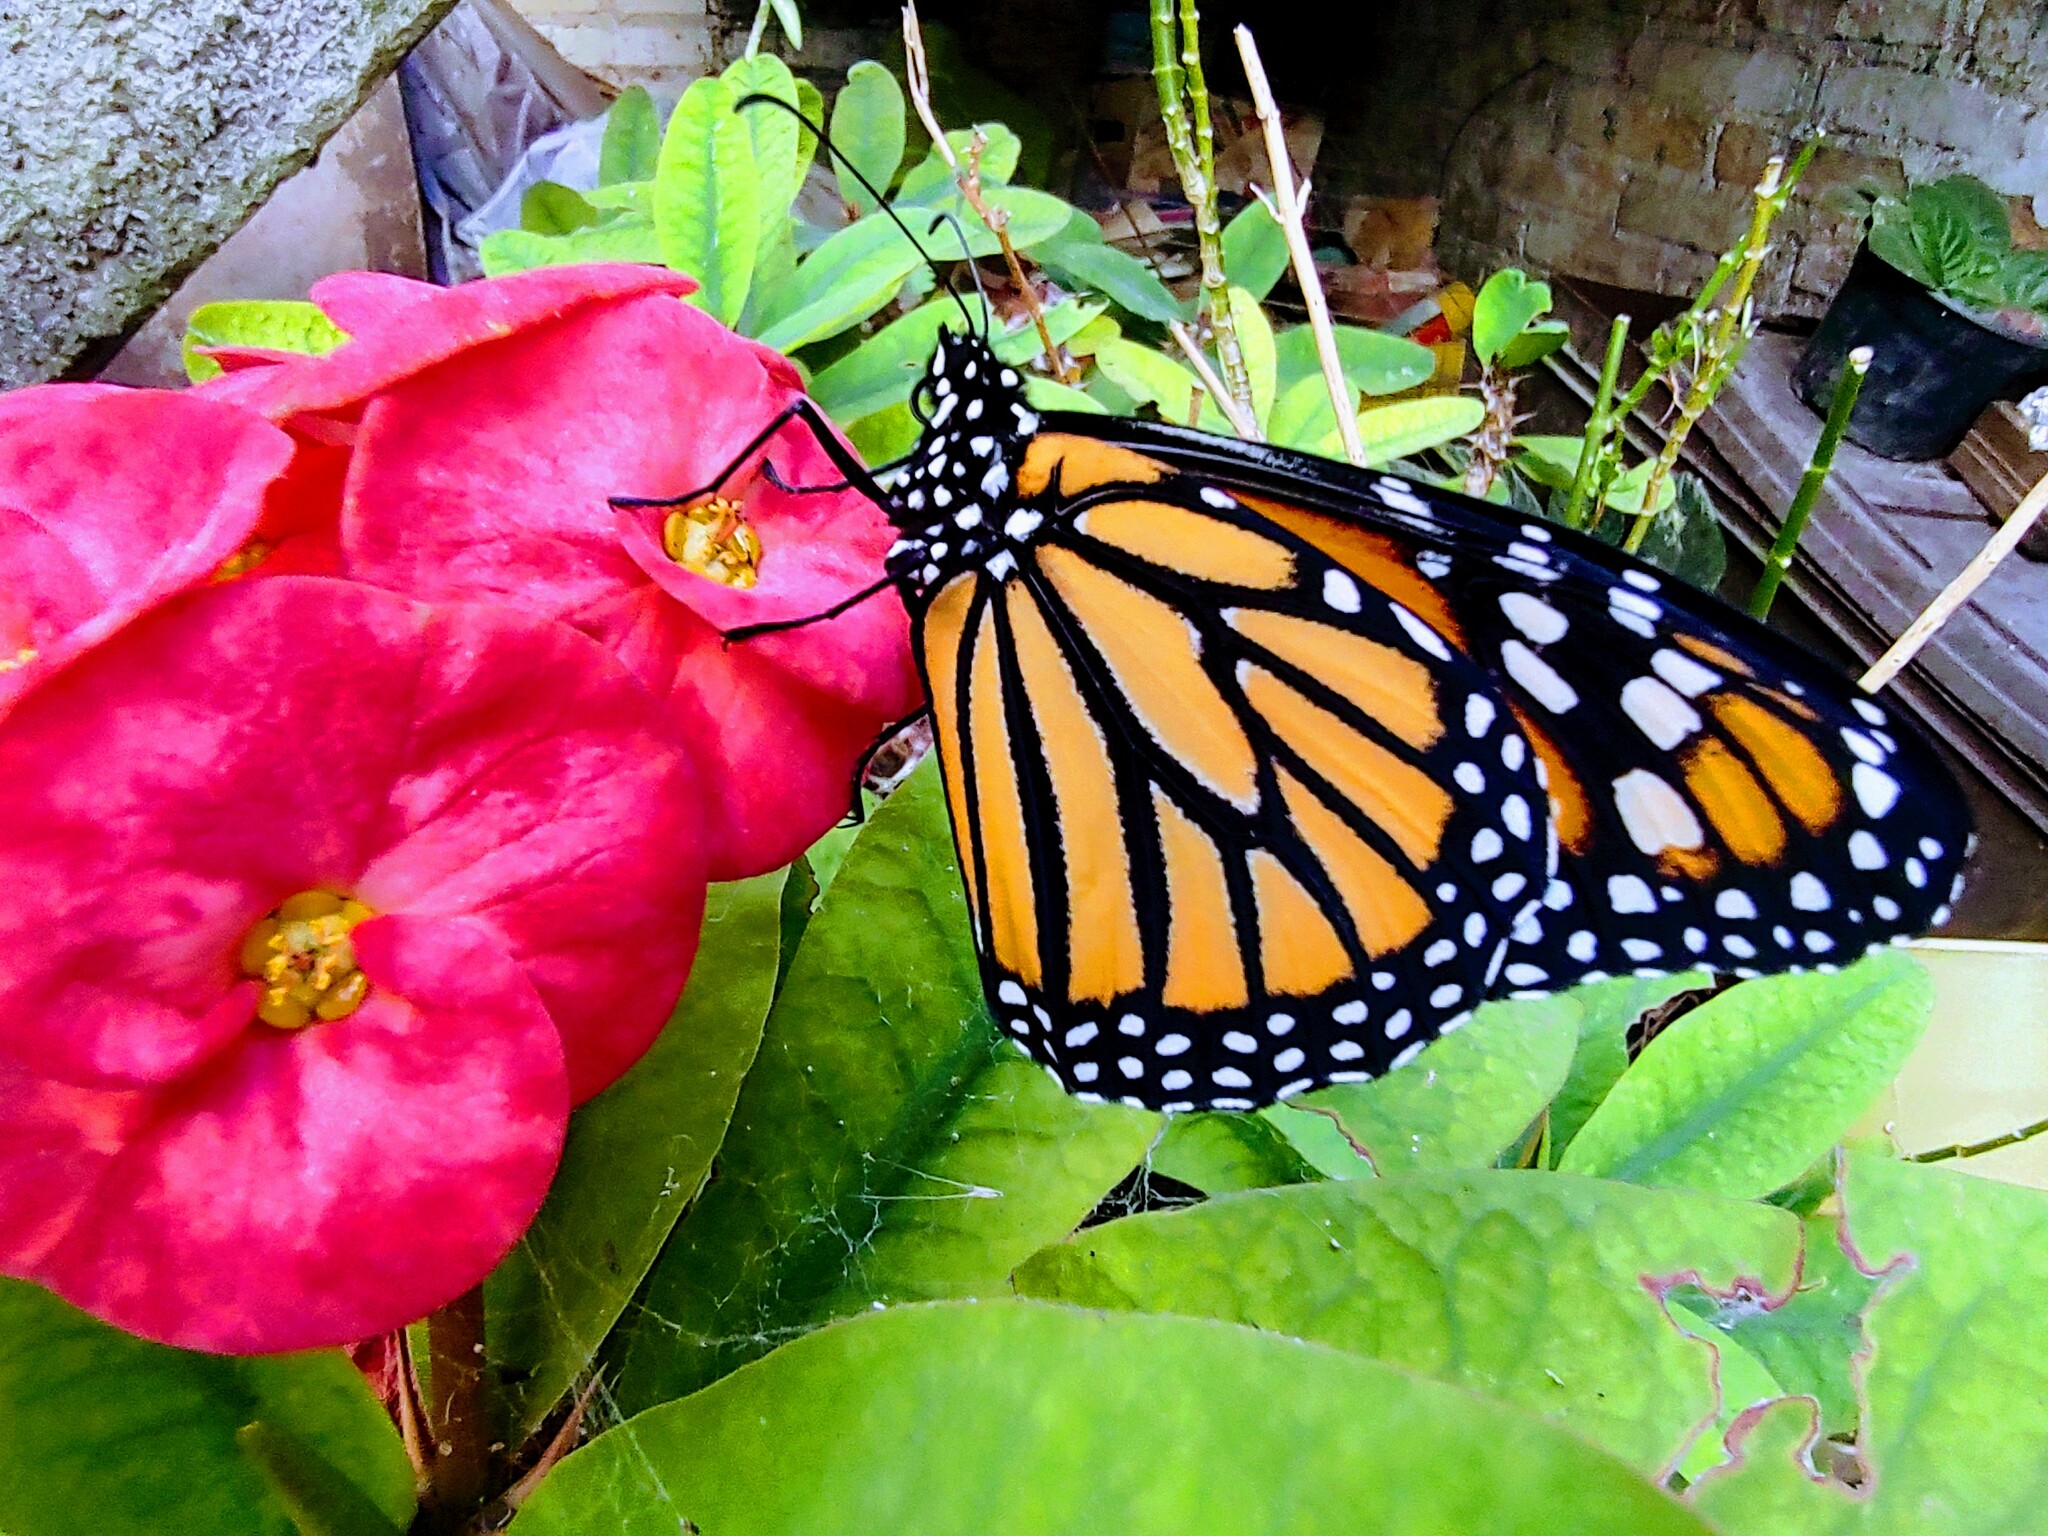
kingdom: Animalia
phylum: Arthropoda
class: Insecta
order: Lepidoptera
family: Nymphalidae
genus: Danaus
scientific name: Danaus plexippus
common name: Monarch
